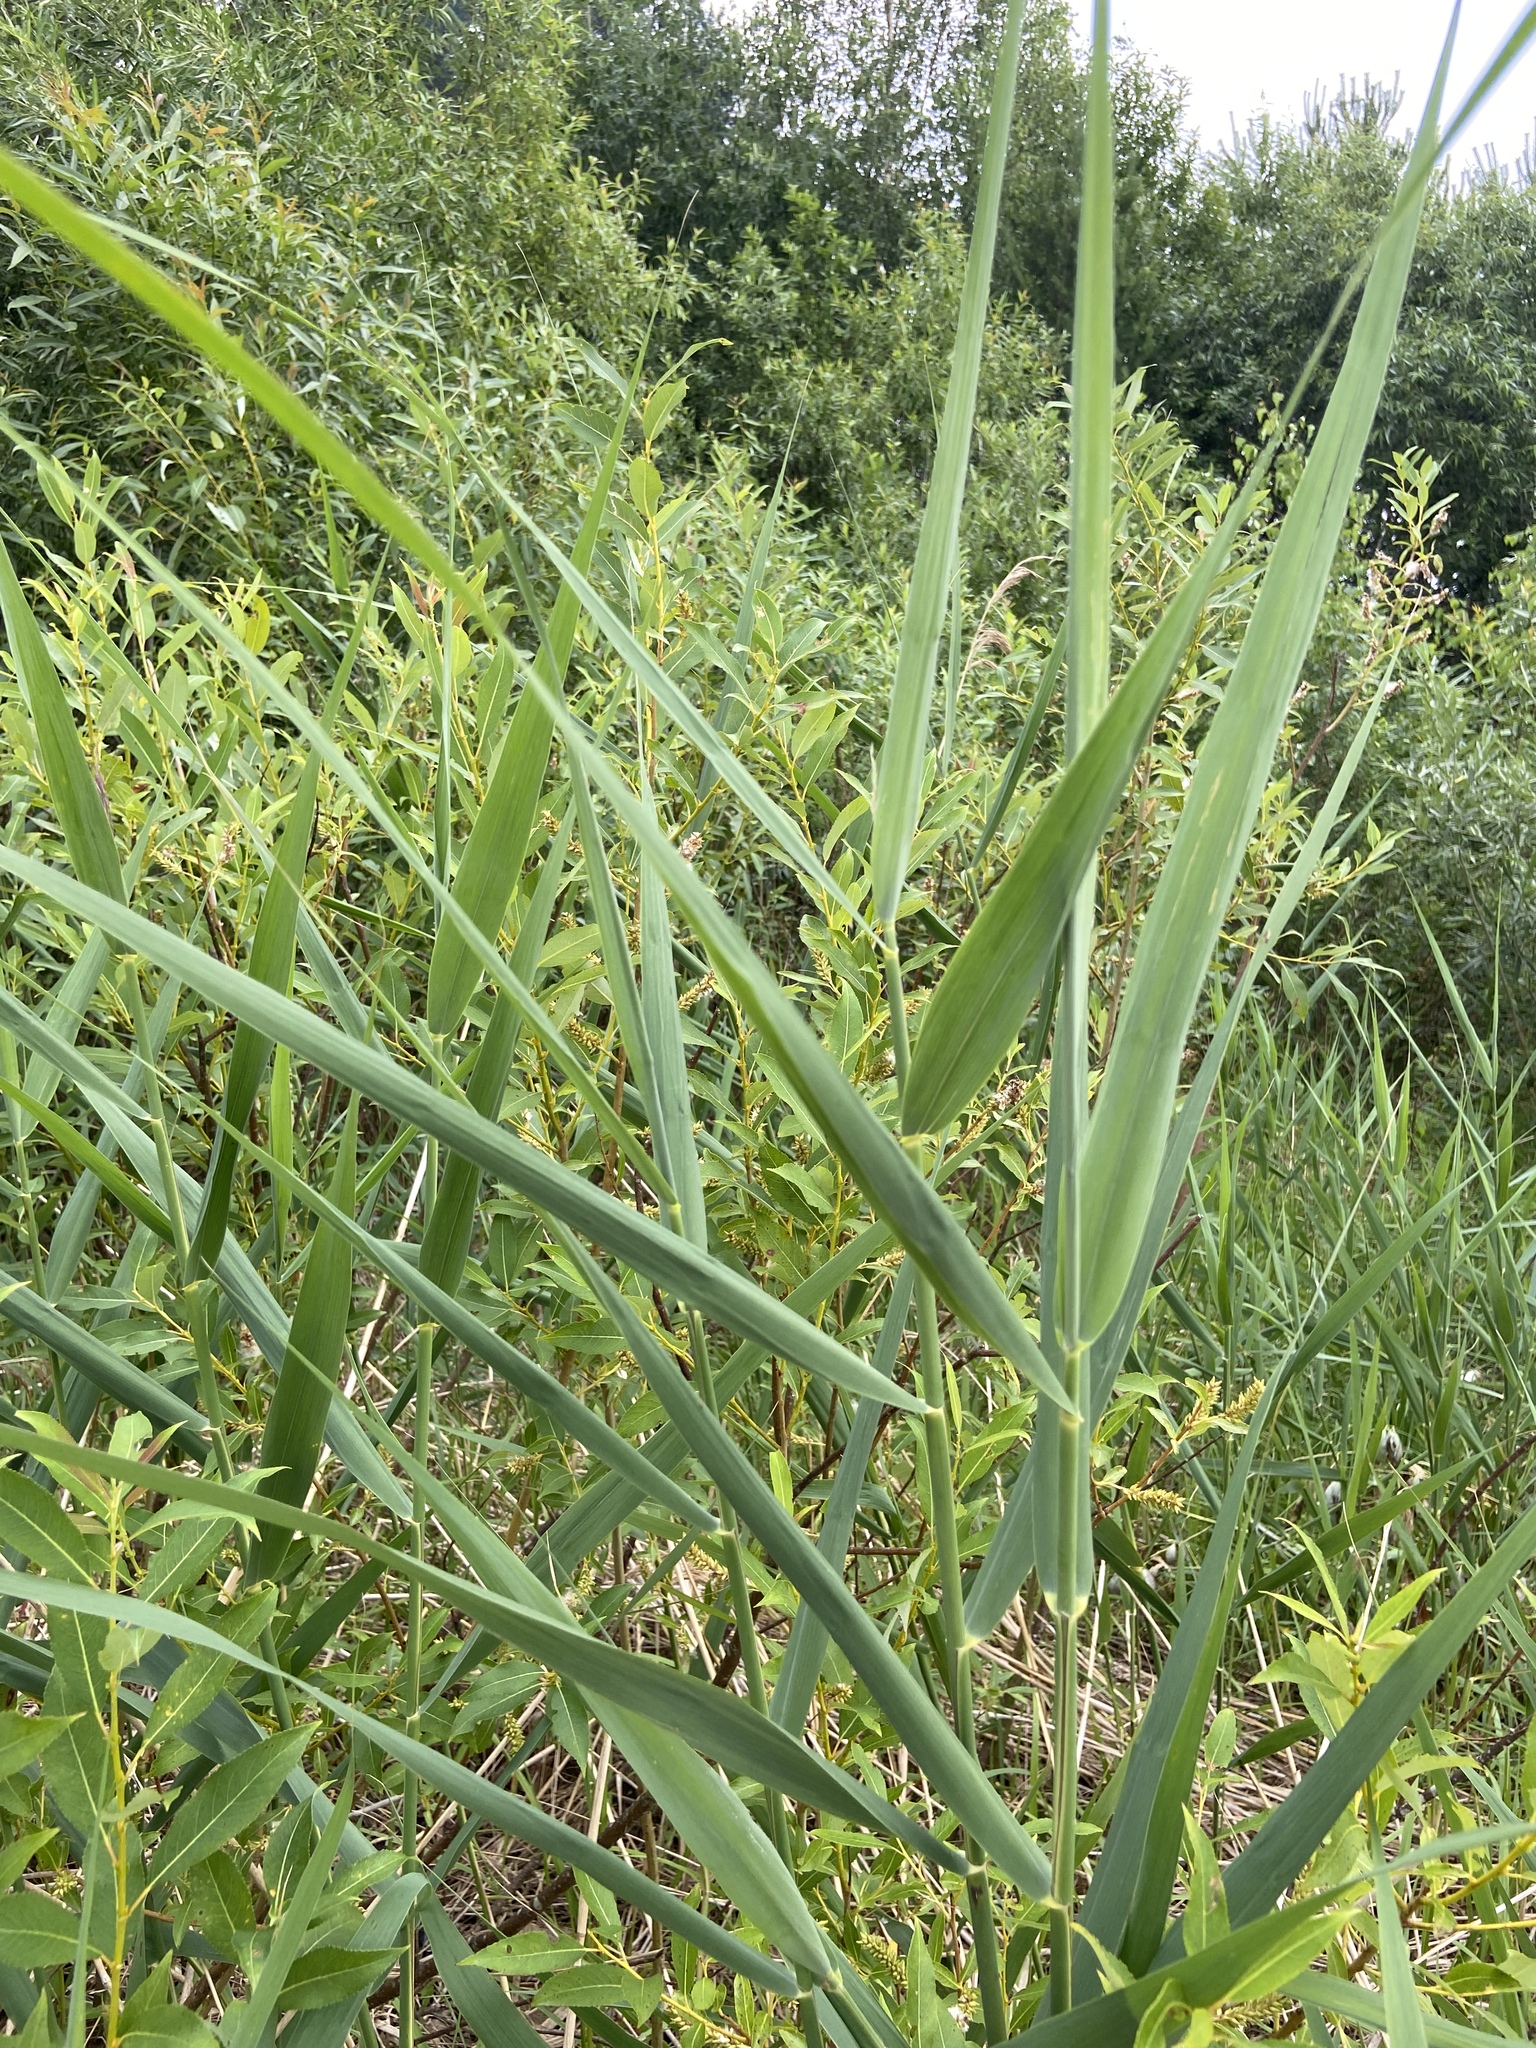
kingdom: Plantae
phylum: Tracheophyta
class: Liliopsida
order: Poales
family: Poaceae
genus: Phragmites
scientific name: Phragmites australis
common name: Common reed
